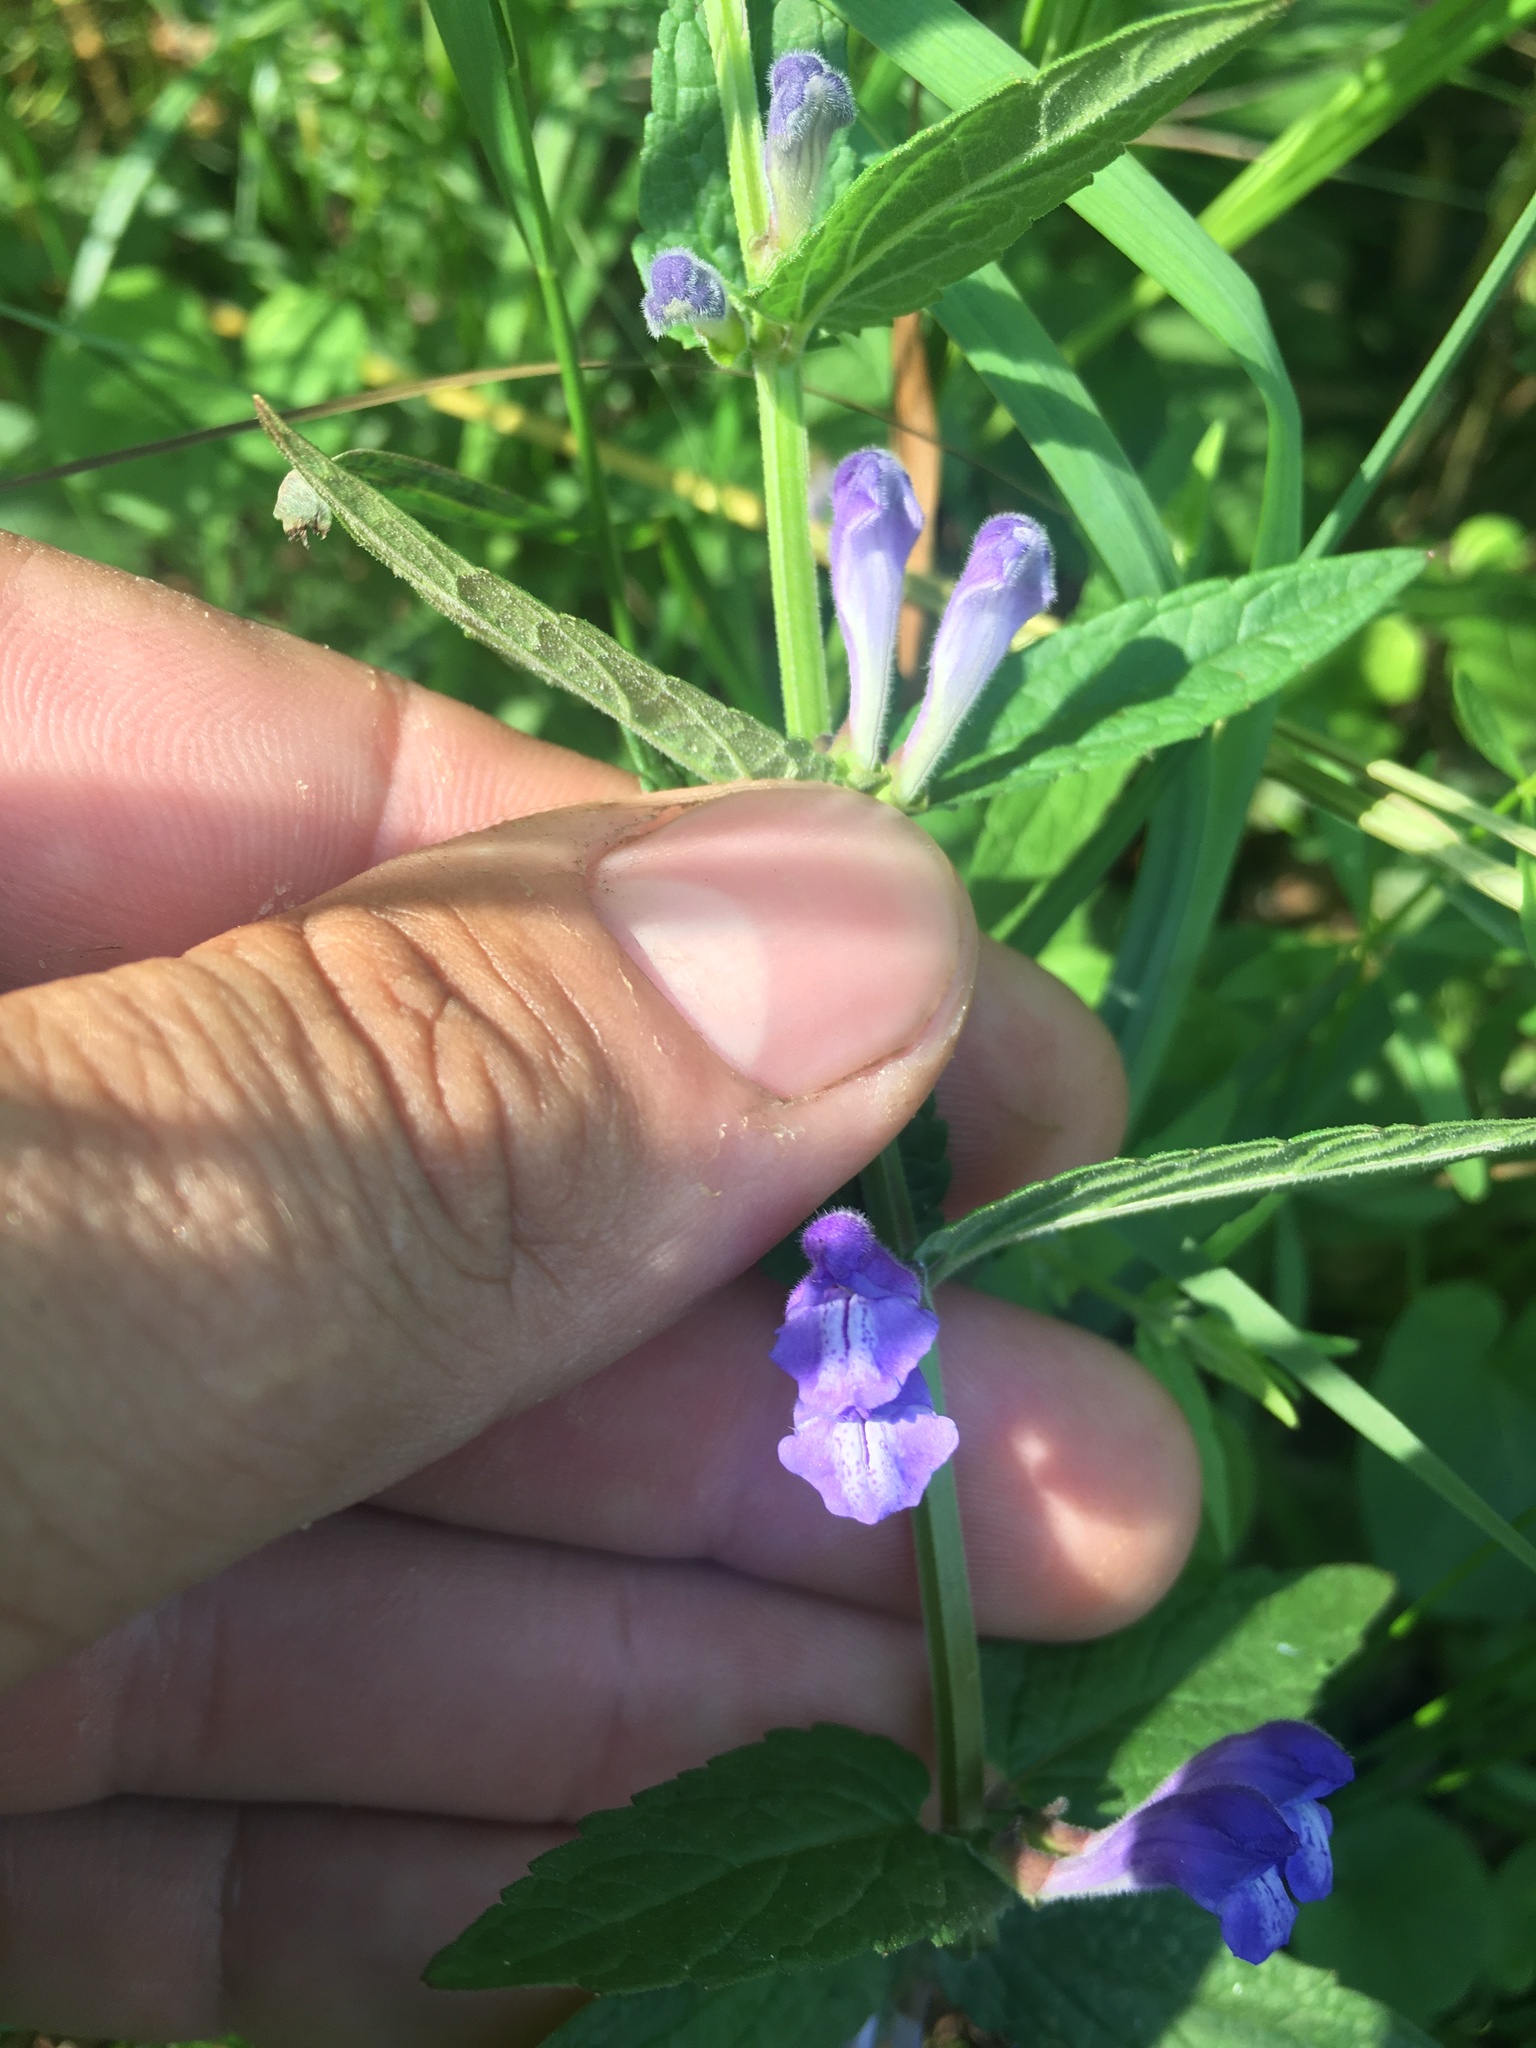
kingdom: Plantae
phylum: Tracheophyta
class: Magnoliopsida
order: Lamiales
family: Lamiaceae
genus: Scutellaria
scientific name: Scutellaria galericulata
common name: Skullcap
